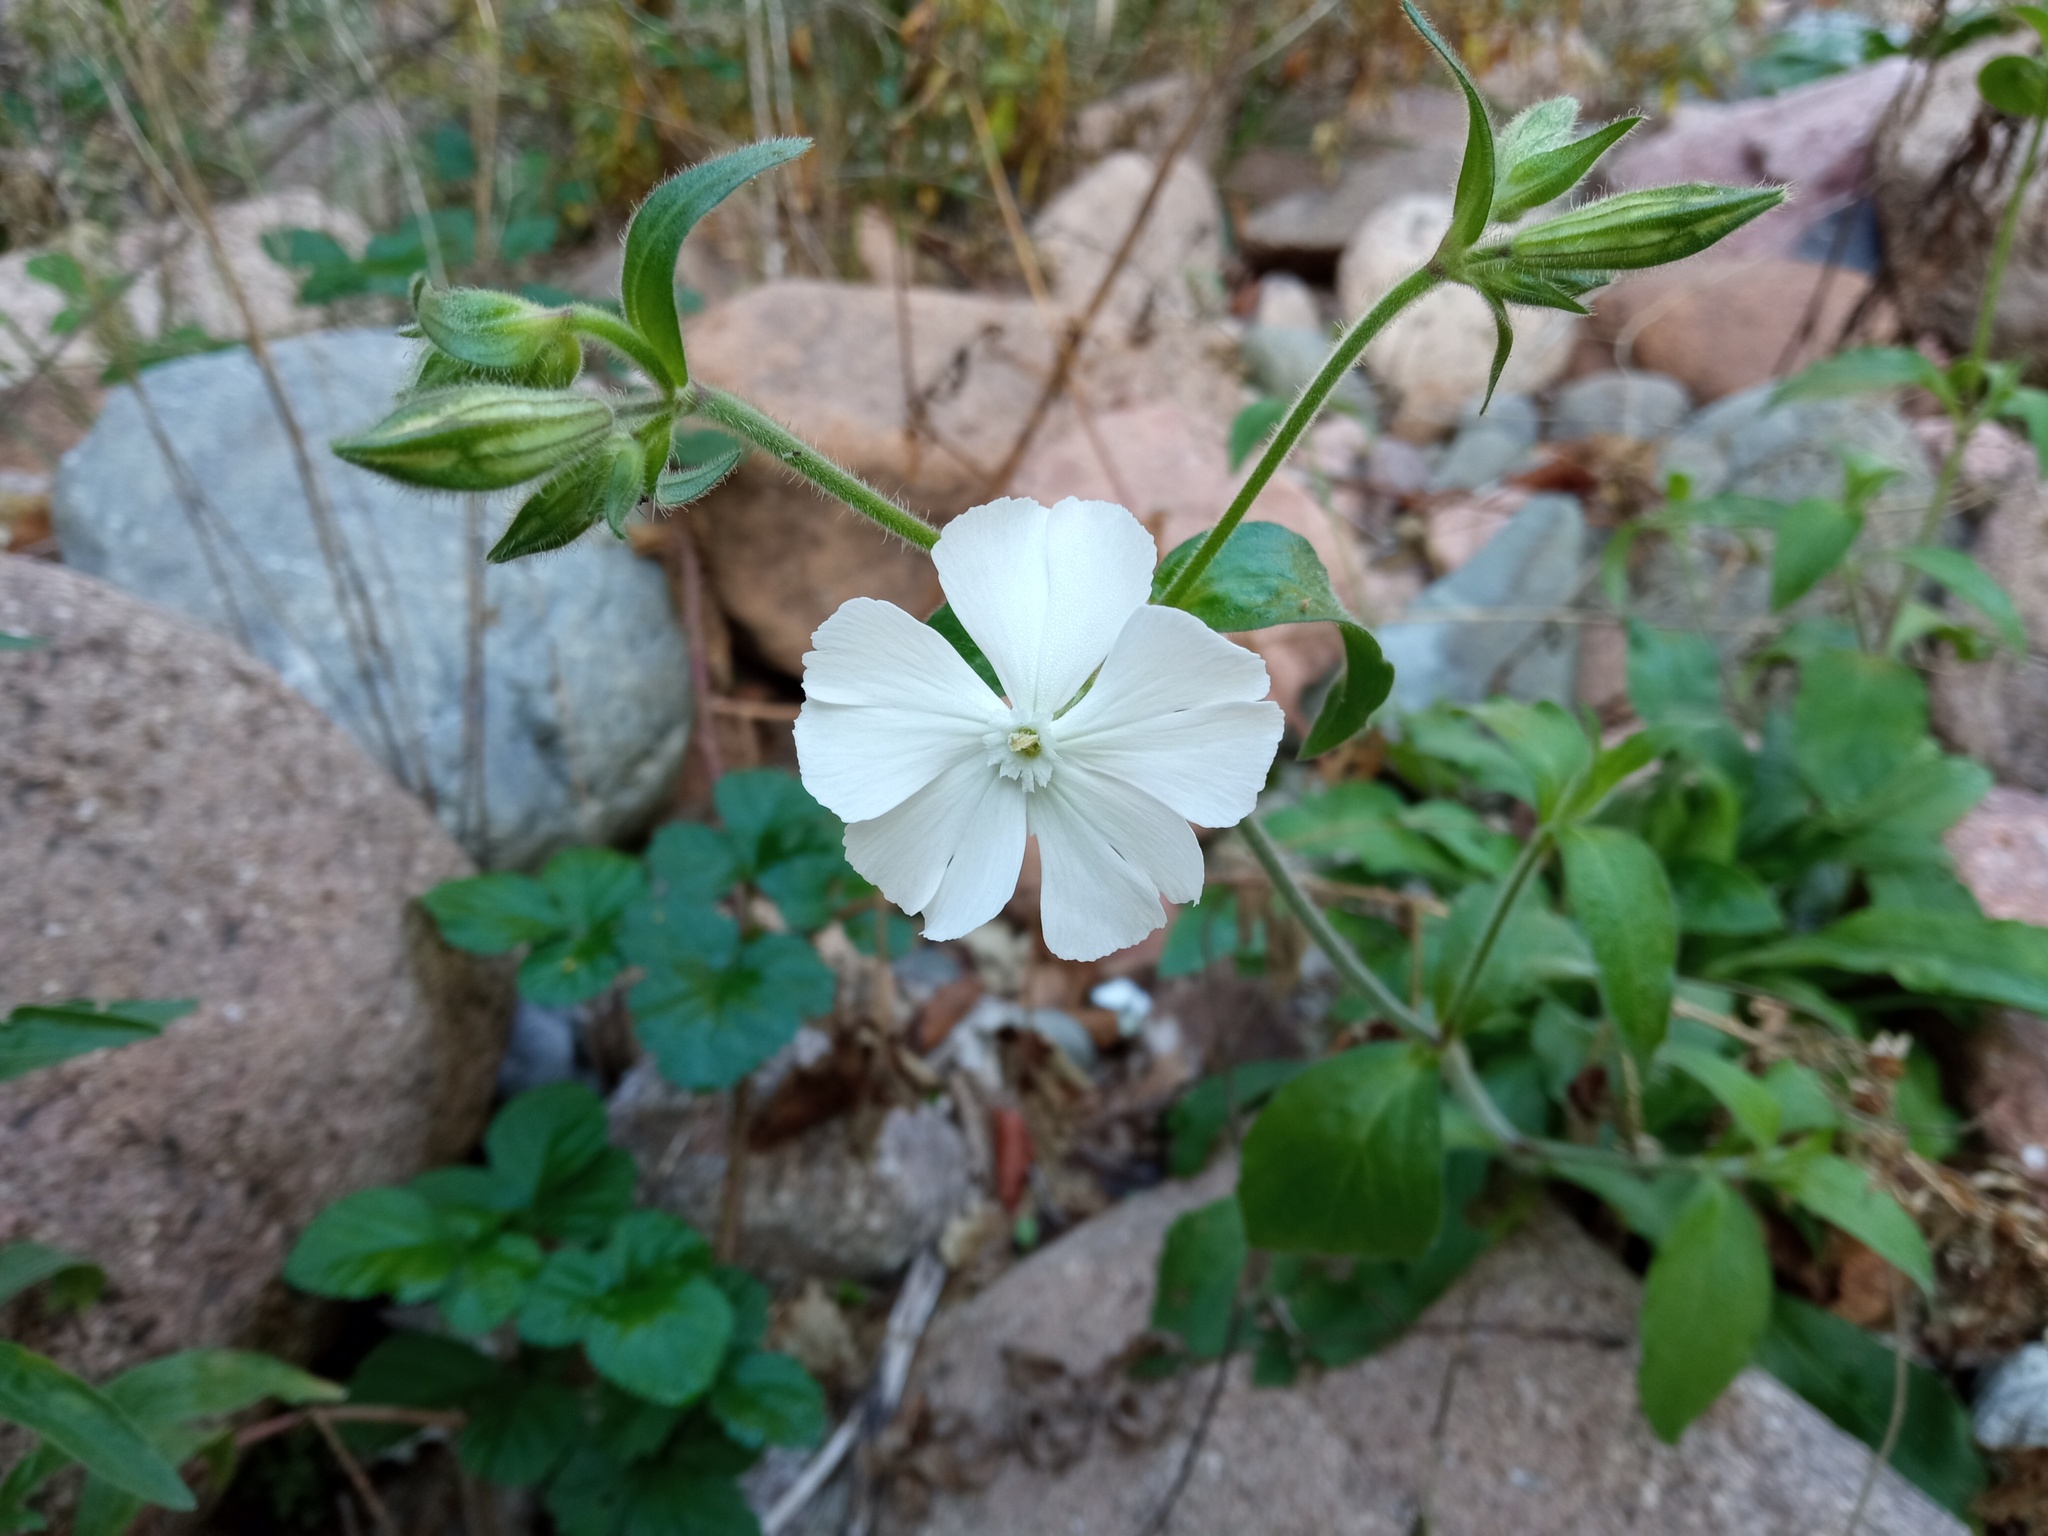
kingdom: Plantae
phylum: Tracheophyta
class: Magnoliopsida
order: Caryophyllales
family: Caryophyllaceae
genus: Silene
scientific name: Silene latifolia
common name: White campion
